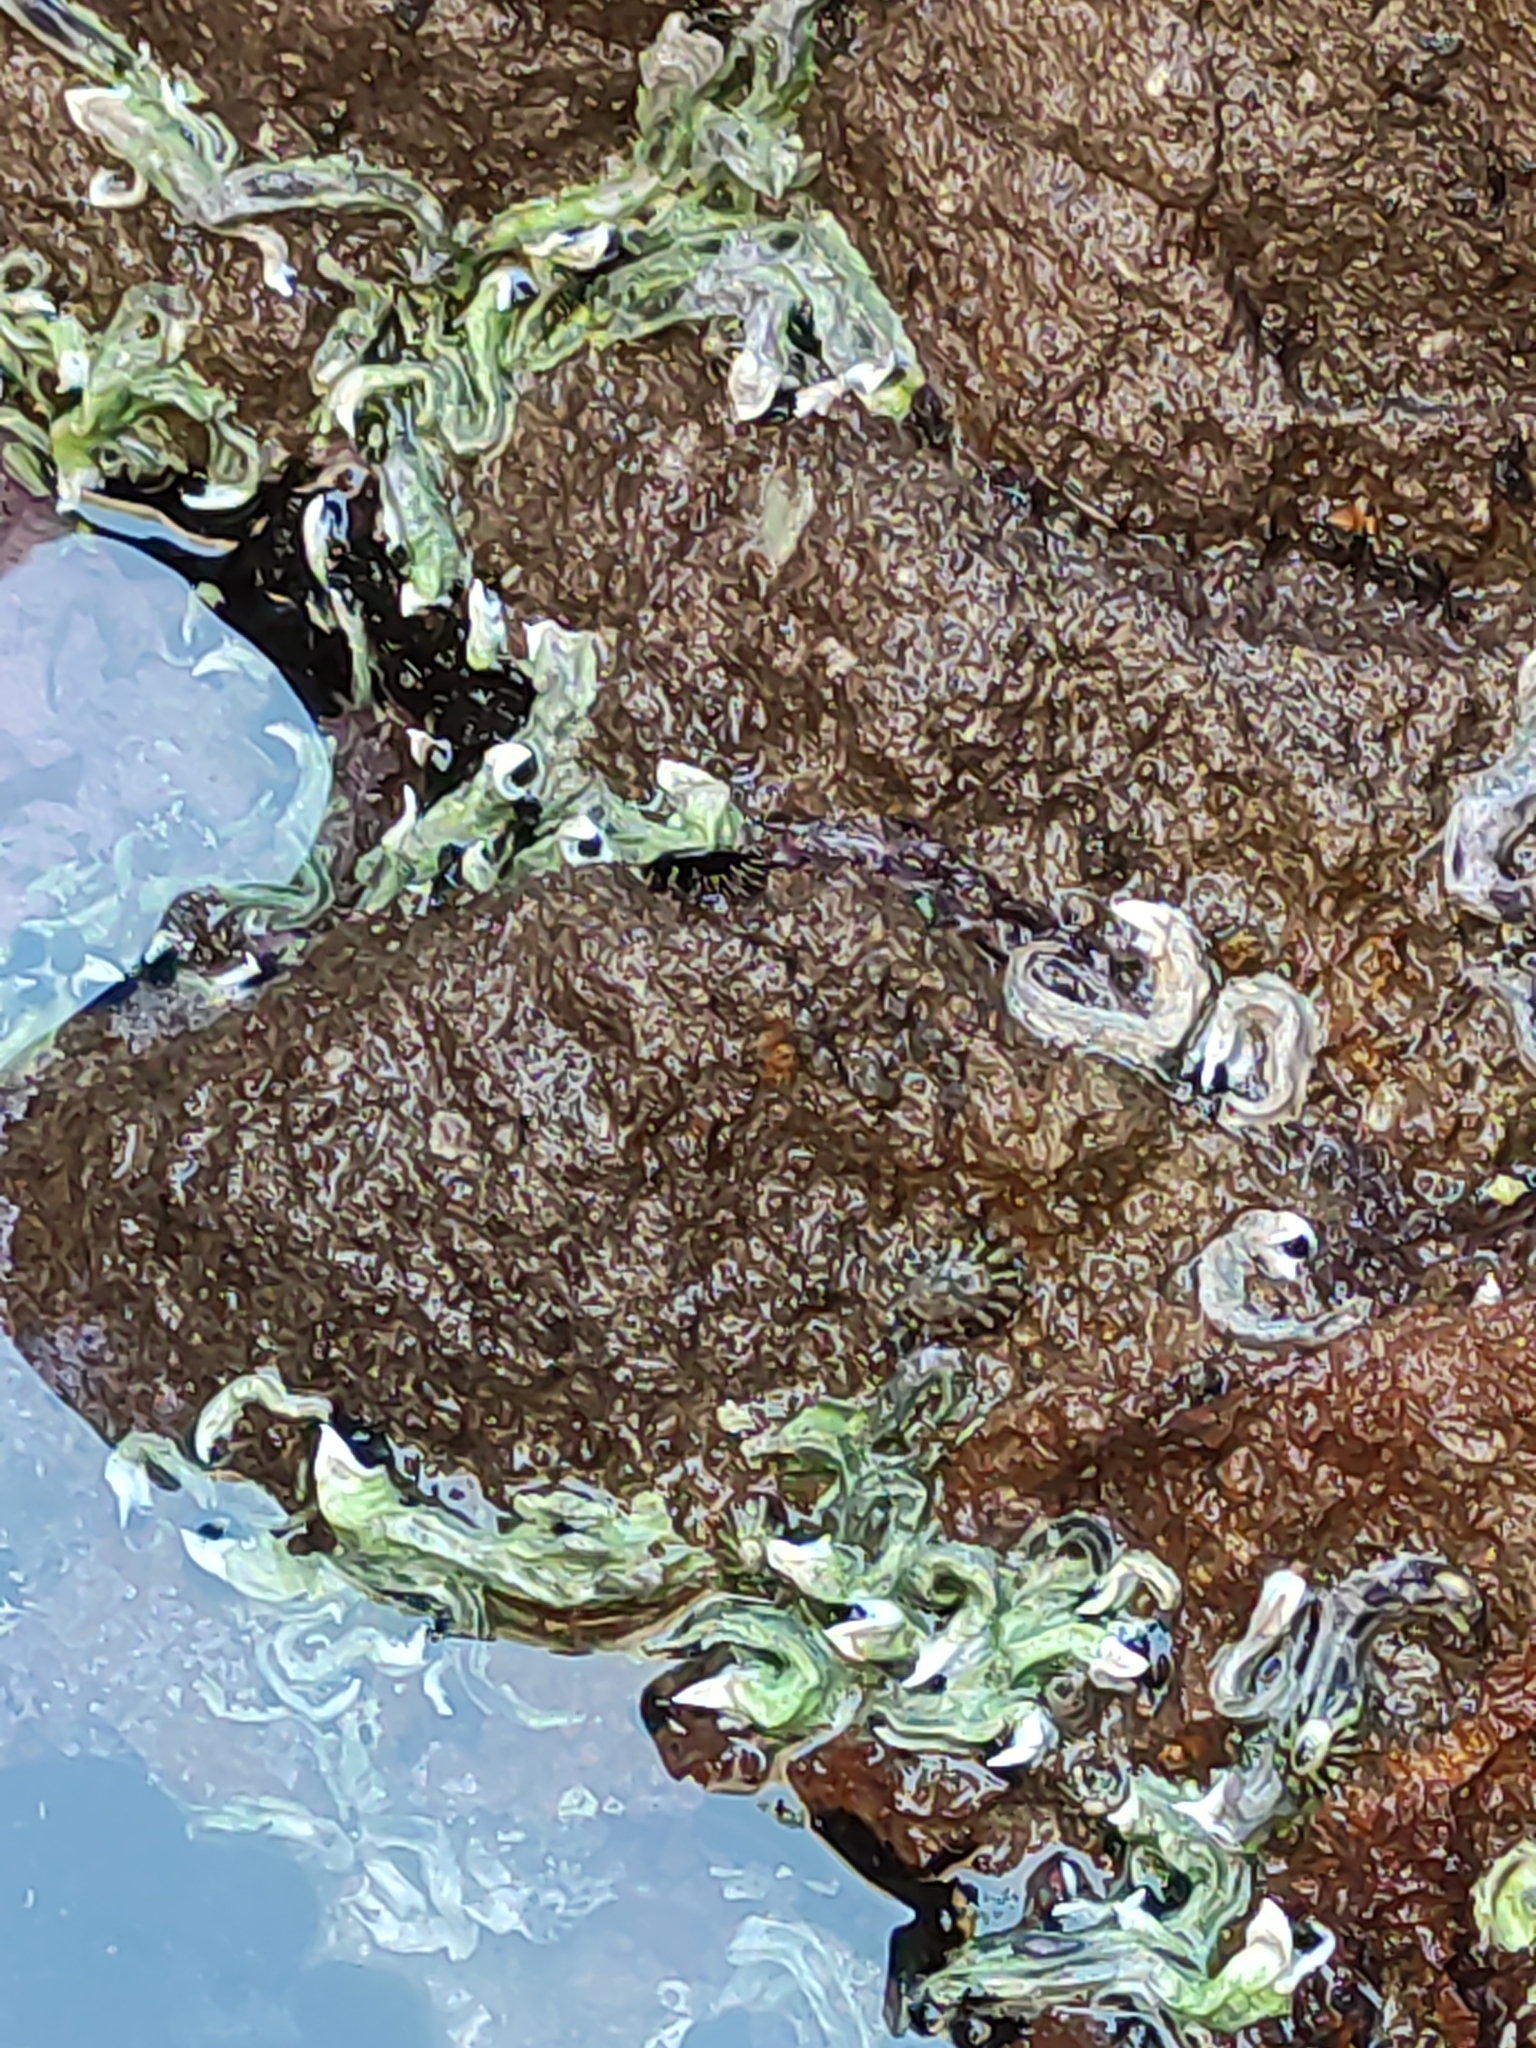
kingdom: Animalia
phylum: Annelida
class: Polychaeta
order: Sabellida
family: Serpulidae
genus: Spirobranchus
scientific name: Spirobranchus cariniferus
